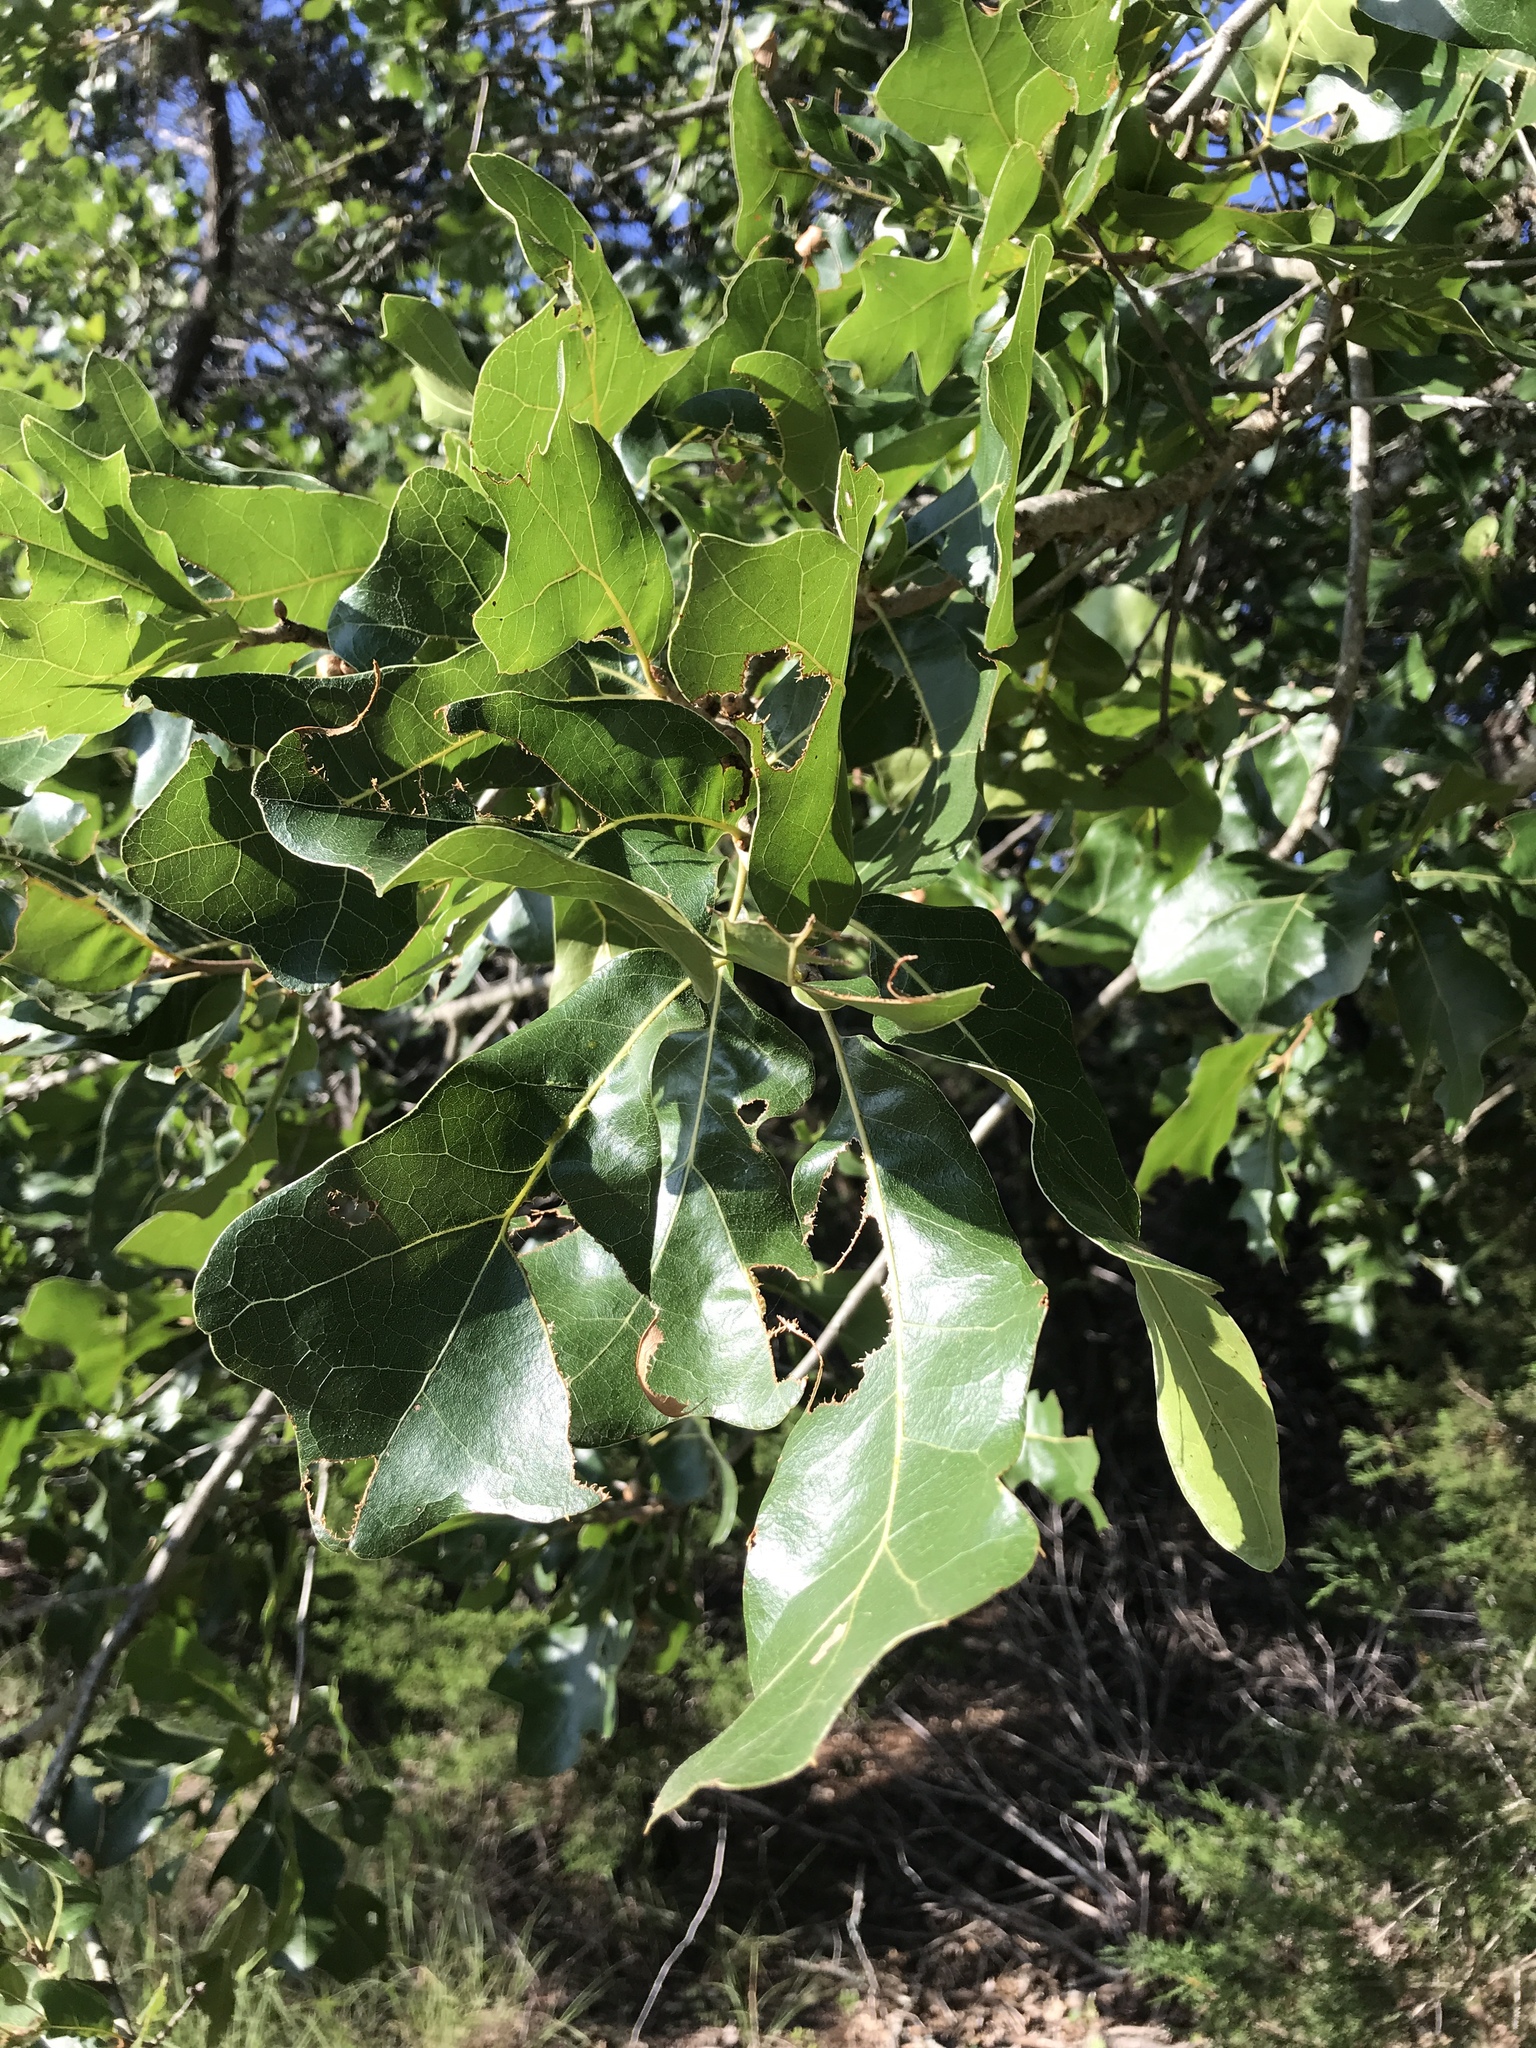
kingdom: Plantae
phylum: Tracheophyta
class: Magnoliopsida
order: Fagales
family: Fagaceae
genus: Quercus
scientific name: Quercus marilandica
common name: Blackjack oak
